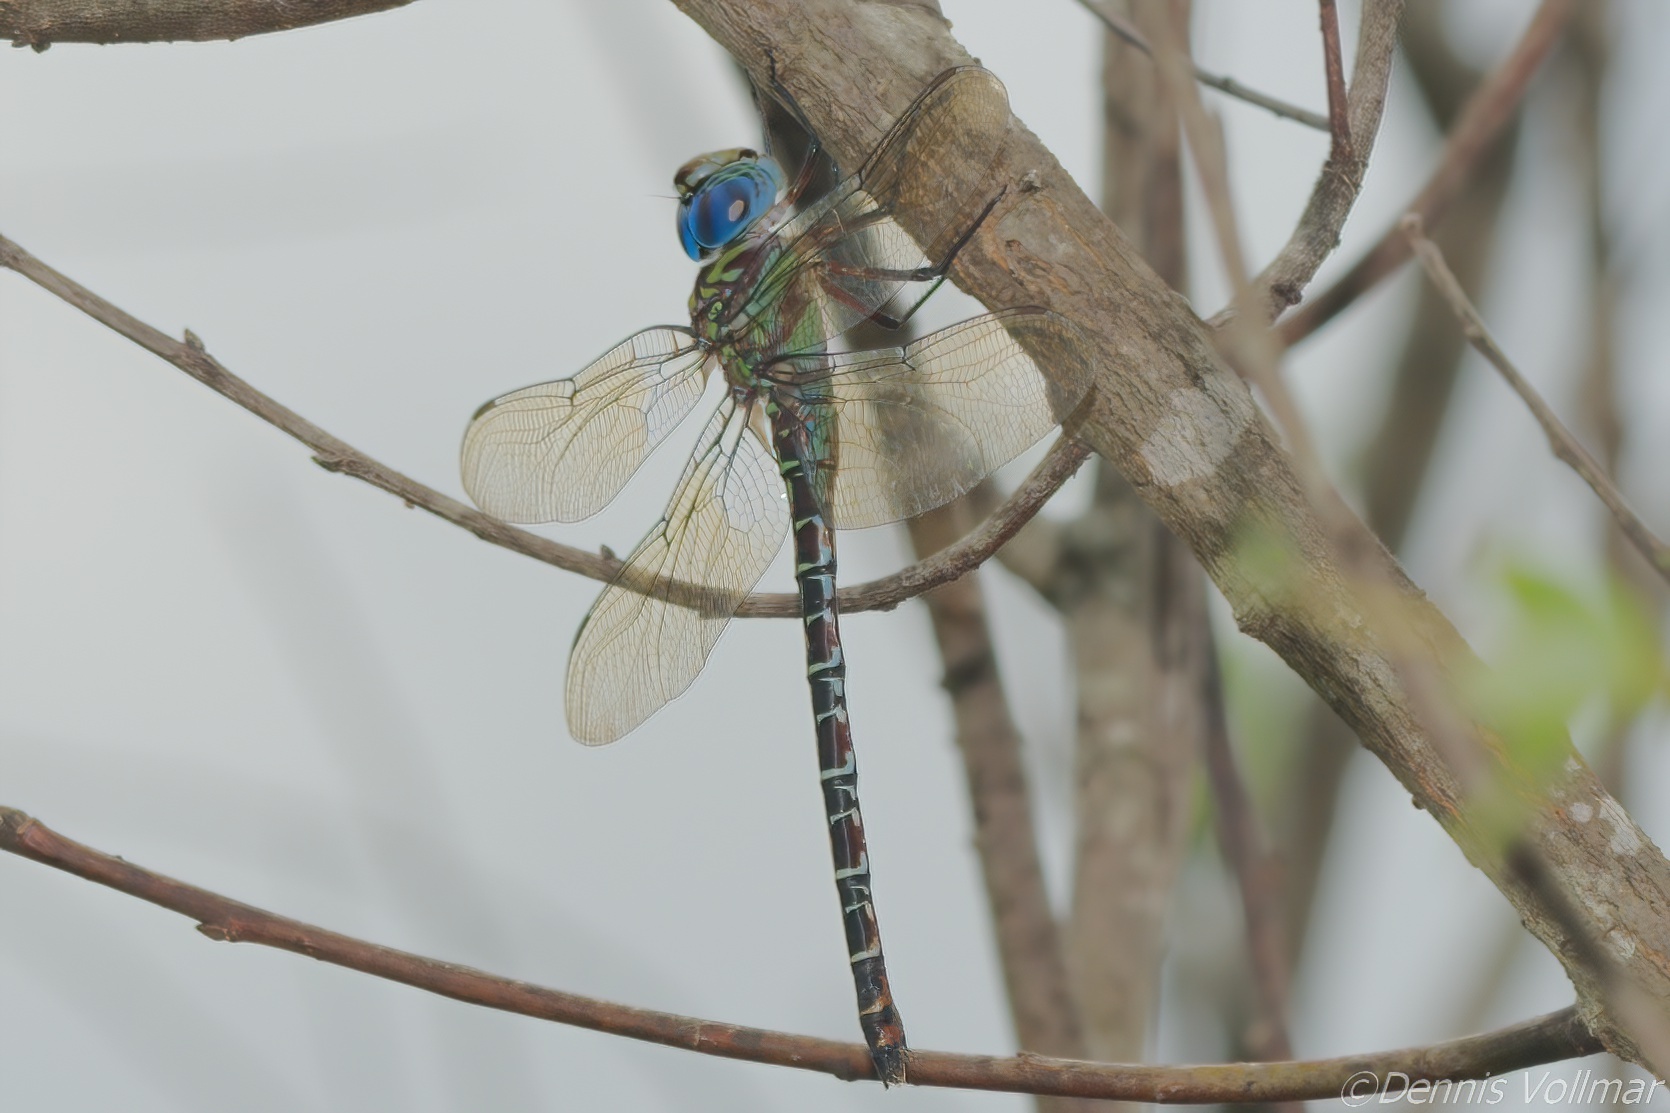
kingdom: Animalia
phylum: Arthropoda
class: Insecta
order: Odonata
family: Aeshnidae
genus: Coryphaeschna
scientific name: Coryphaeschna ingens
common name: Regal darner
